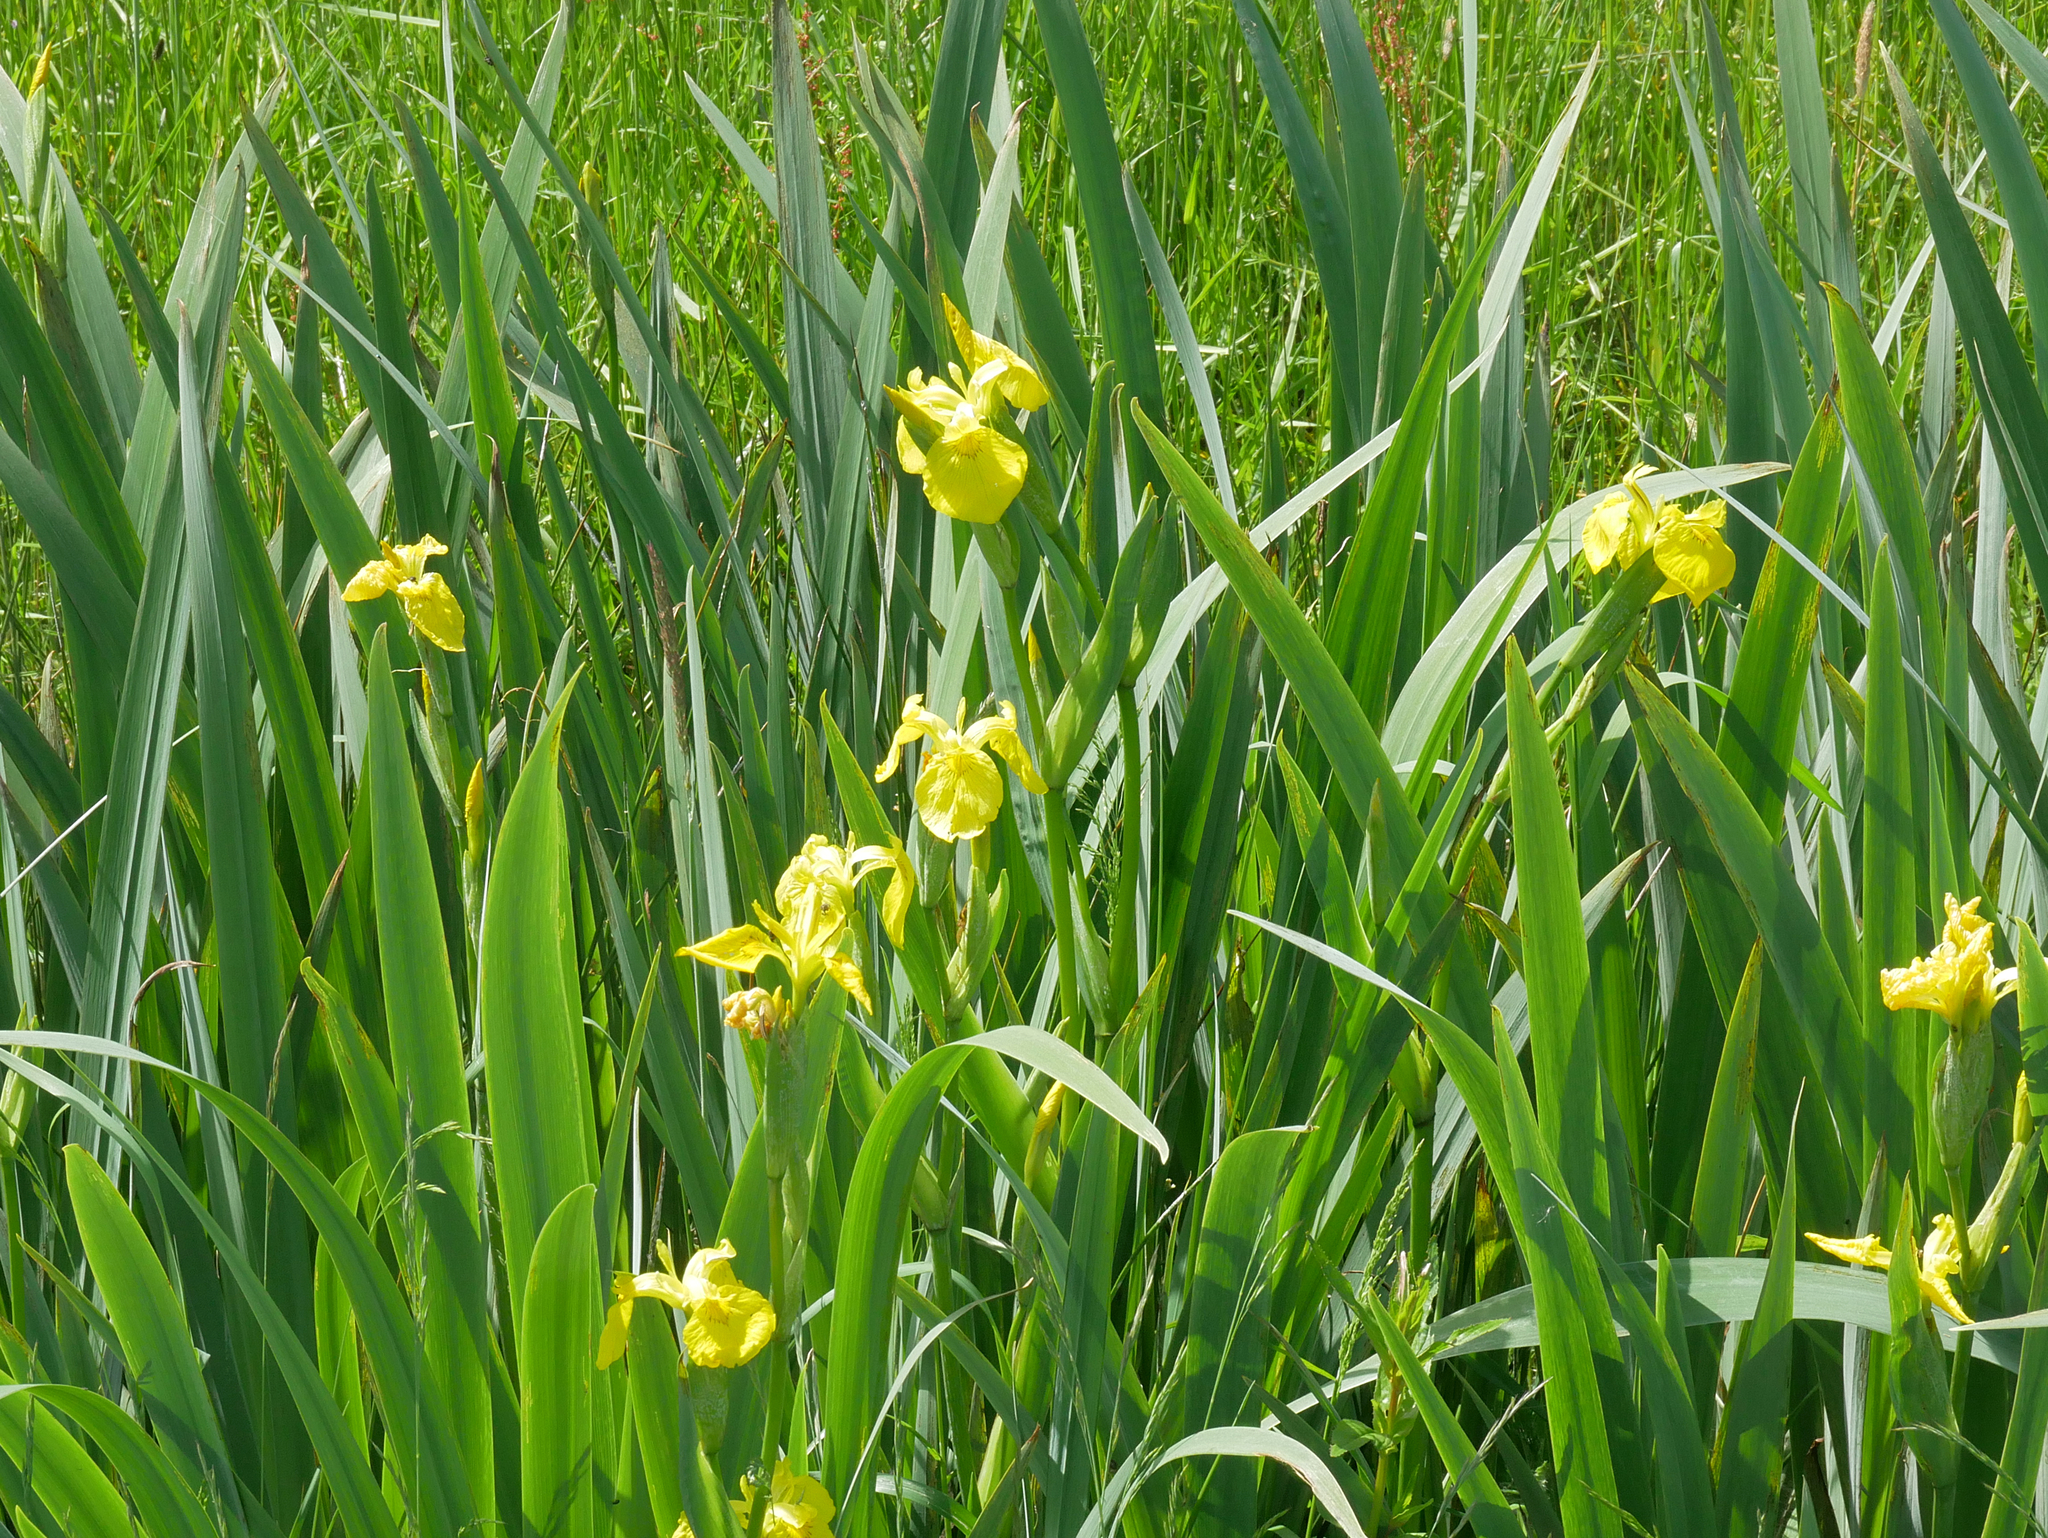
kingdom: Plantae
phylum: Tracheophyta
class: Liliopsida
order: Asparagales
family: Iridaceae
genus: Iris
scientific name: Iris pseudacorus
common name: Yellow flag
